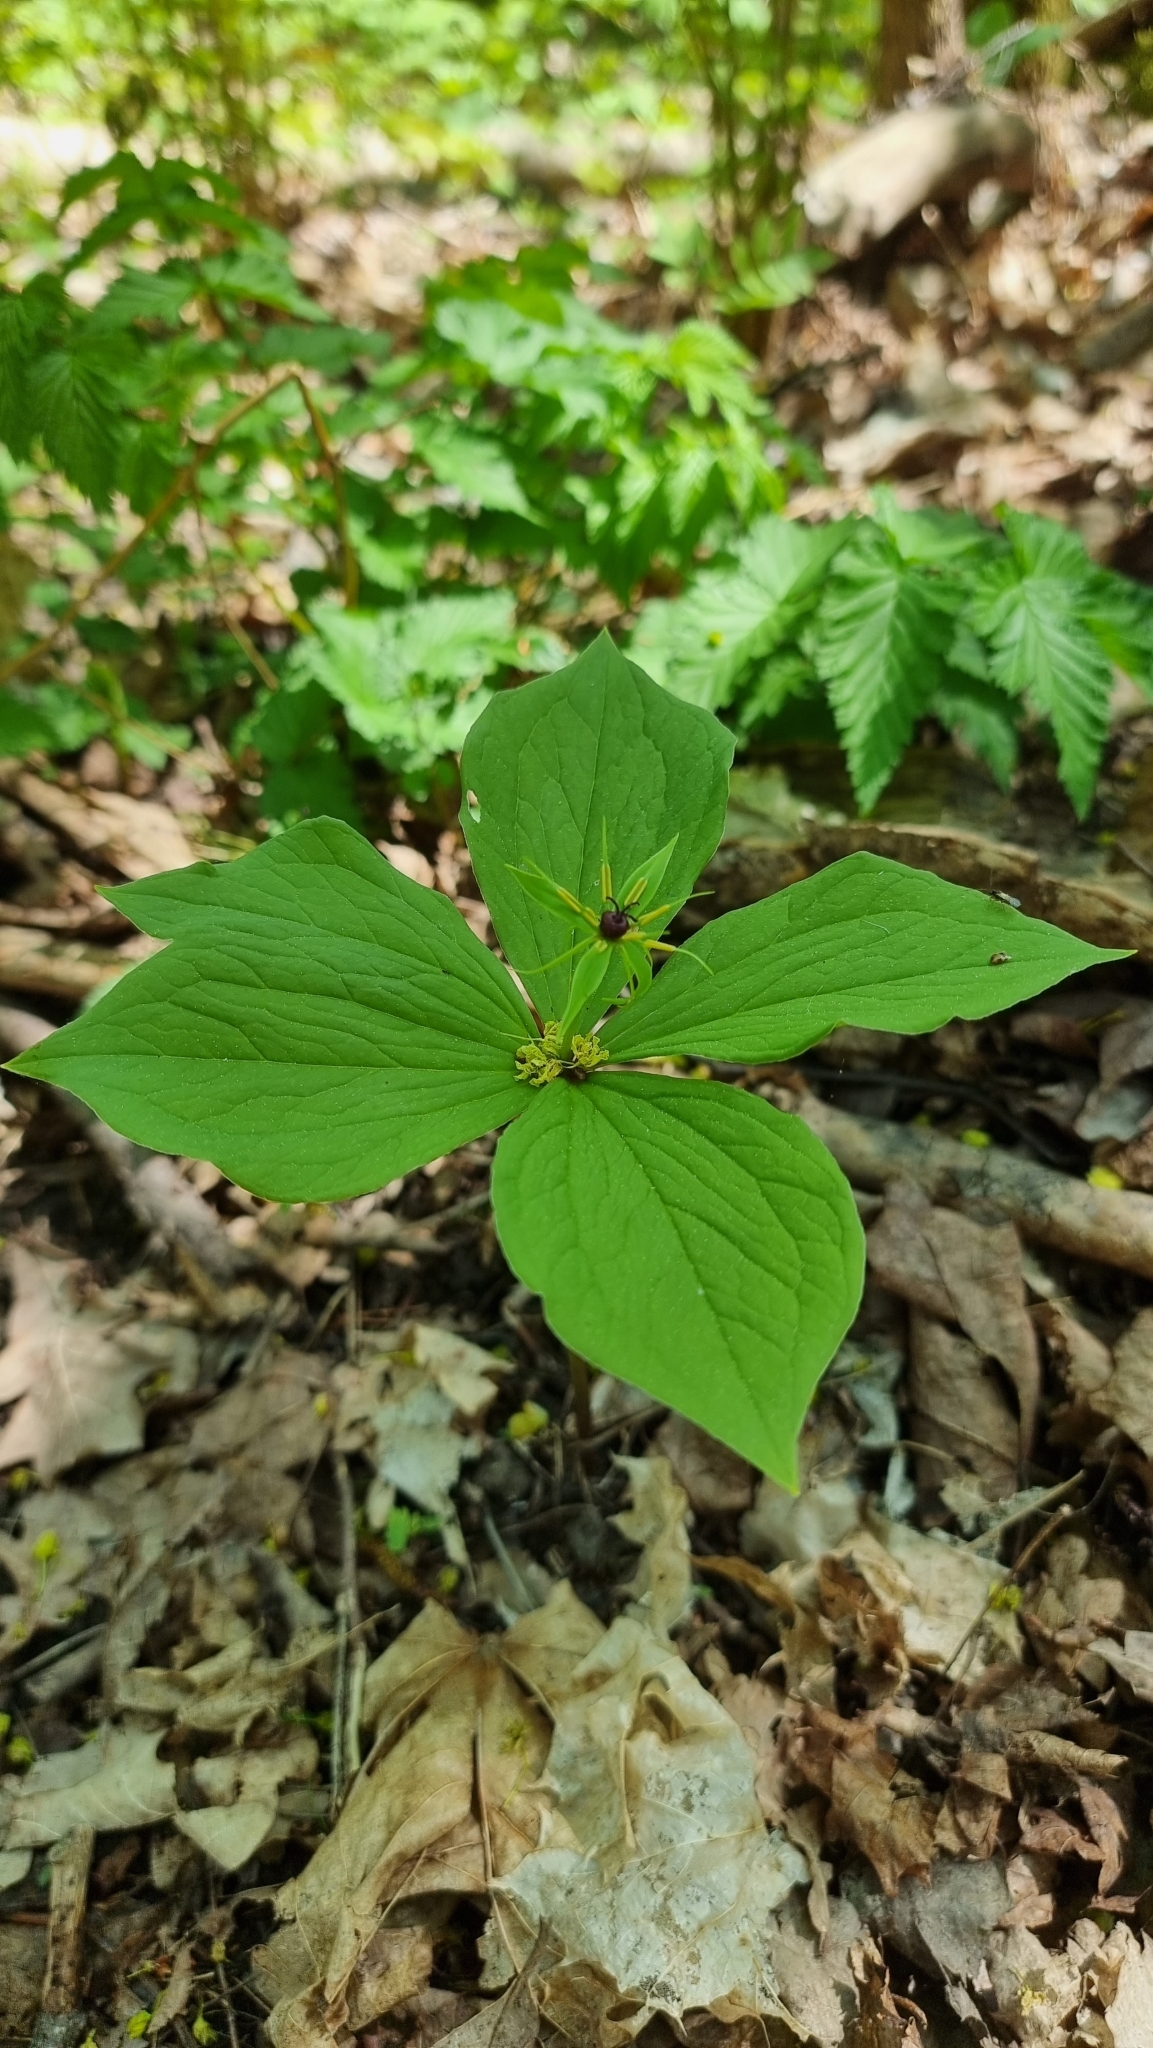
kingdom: Plantae
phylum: Tracheophyta
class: Liliopsida
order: Liliales
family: Melanthiaceae
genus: Paris
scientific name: Paris quadrifolia
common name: Herb-paris
